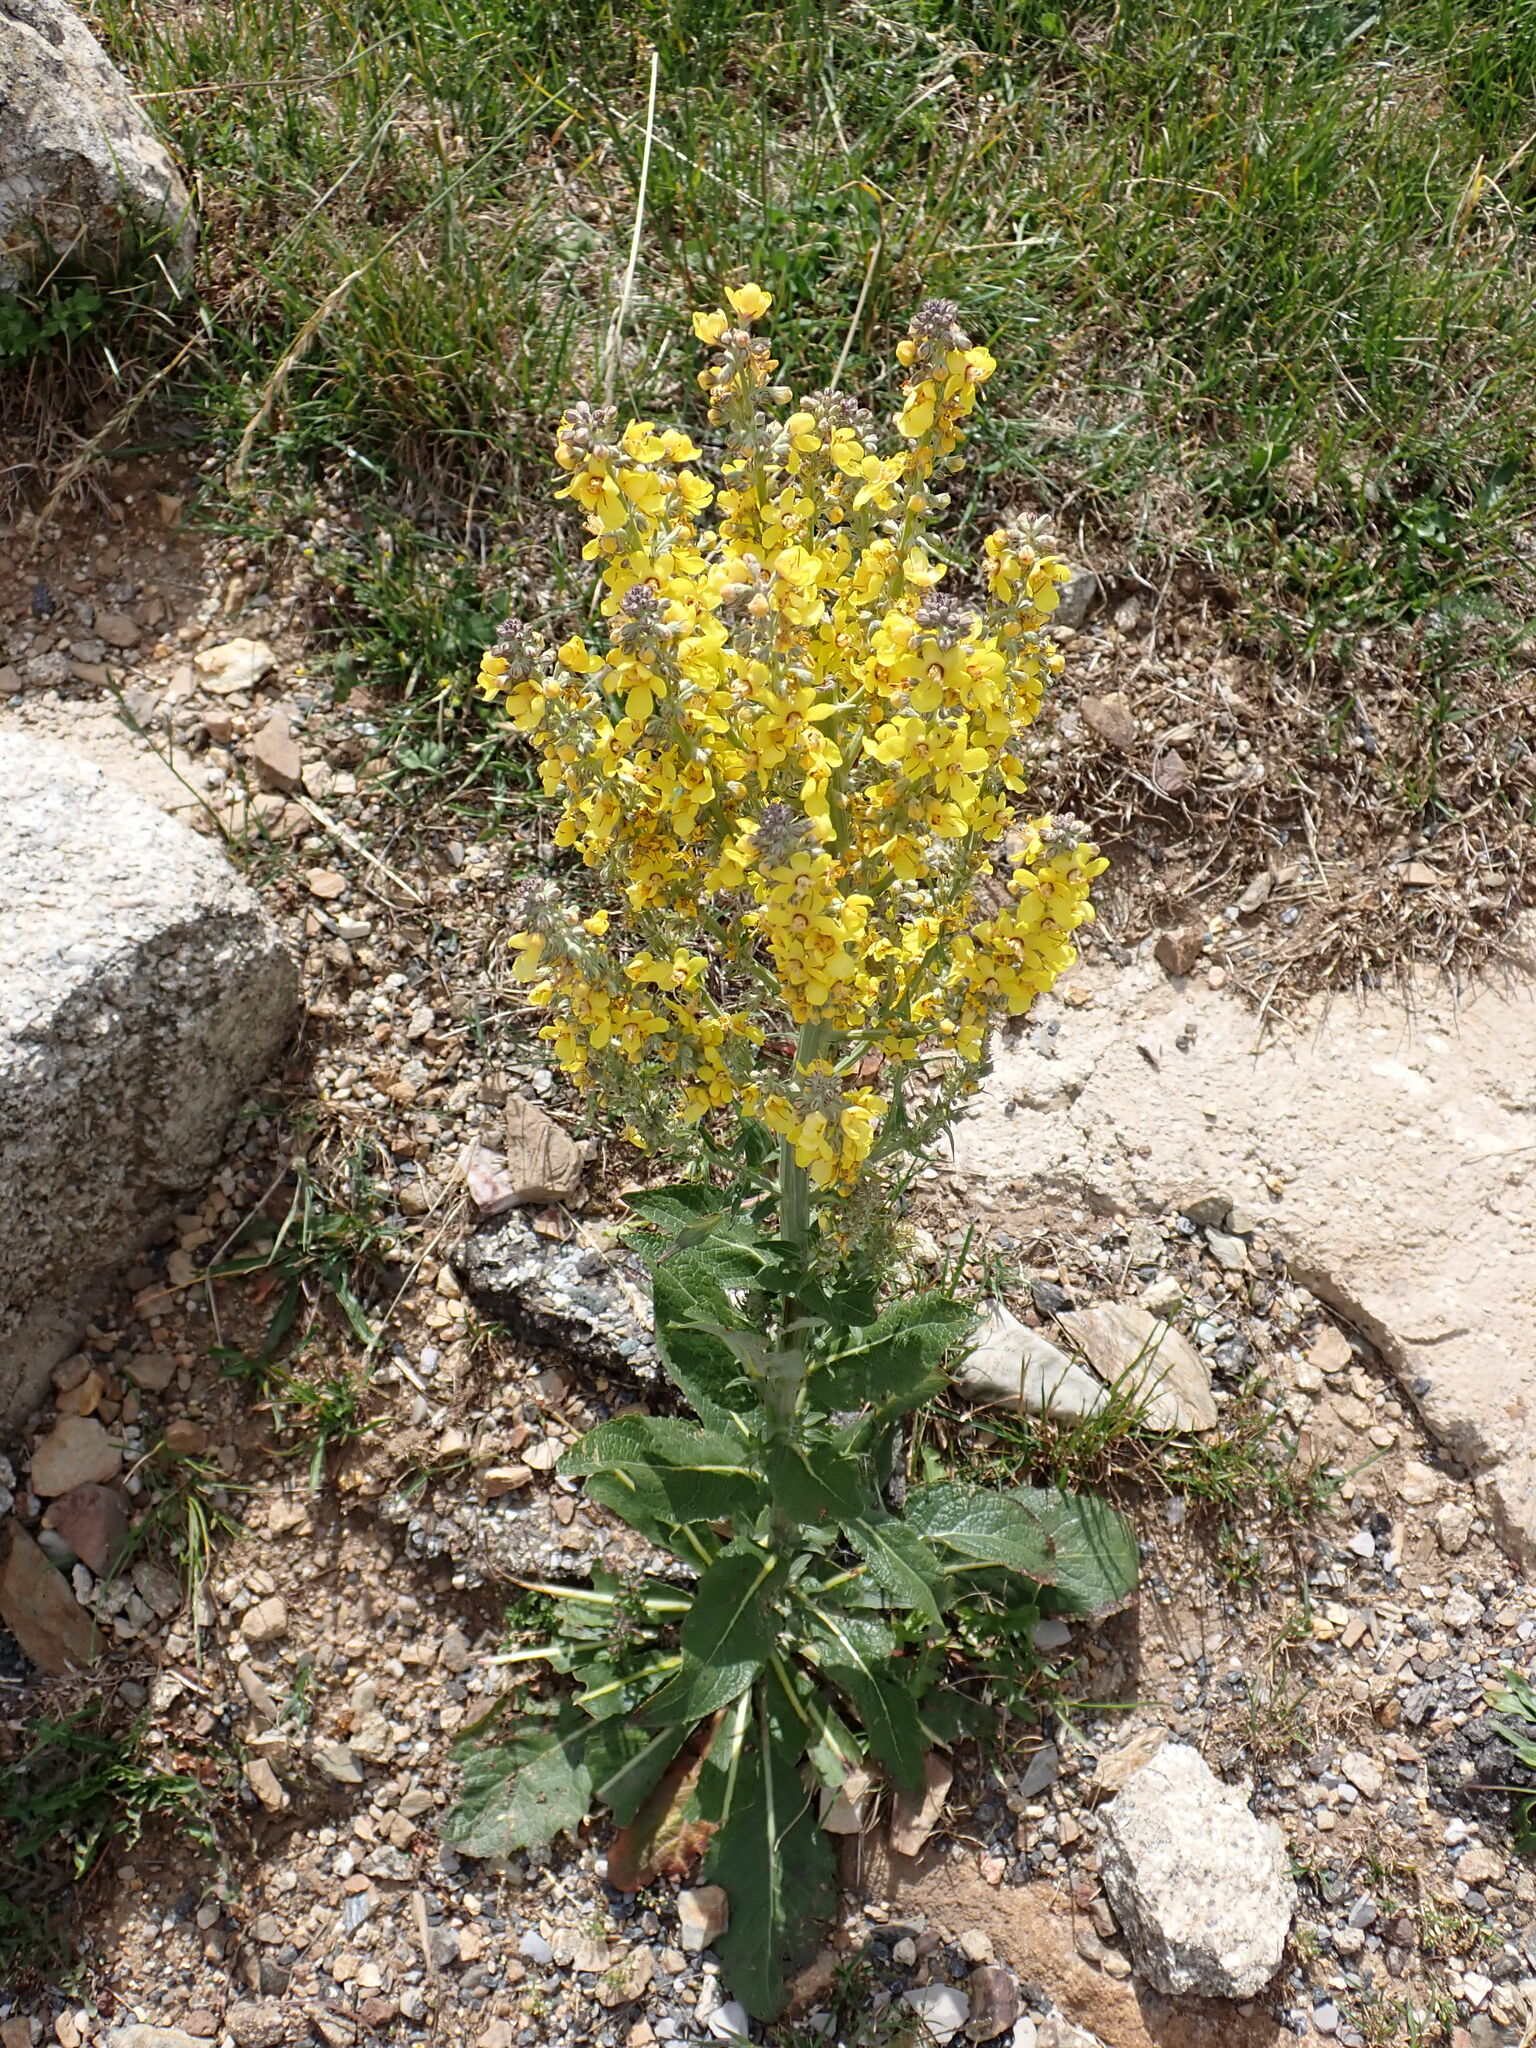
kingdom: Plantae
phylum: Tracheophyta
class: Magnoliopsida
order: Lamiales
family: Scrophulariaceae
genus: Verbascum
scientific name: Verbascum lychnitis
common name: White mullein
